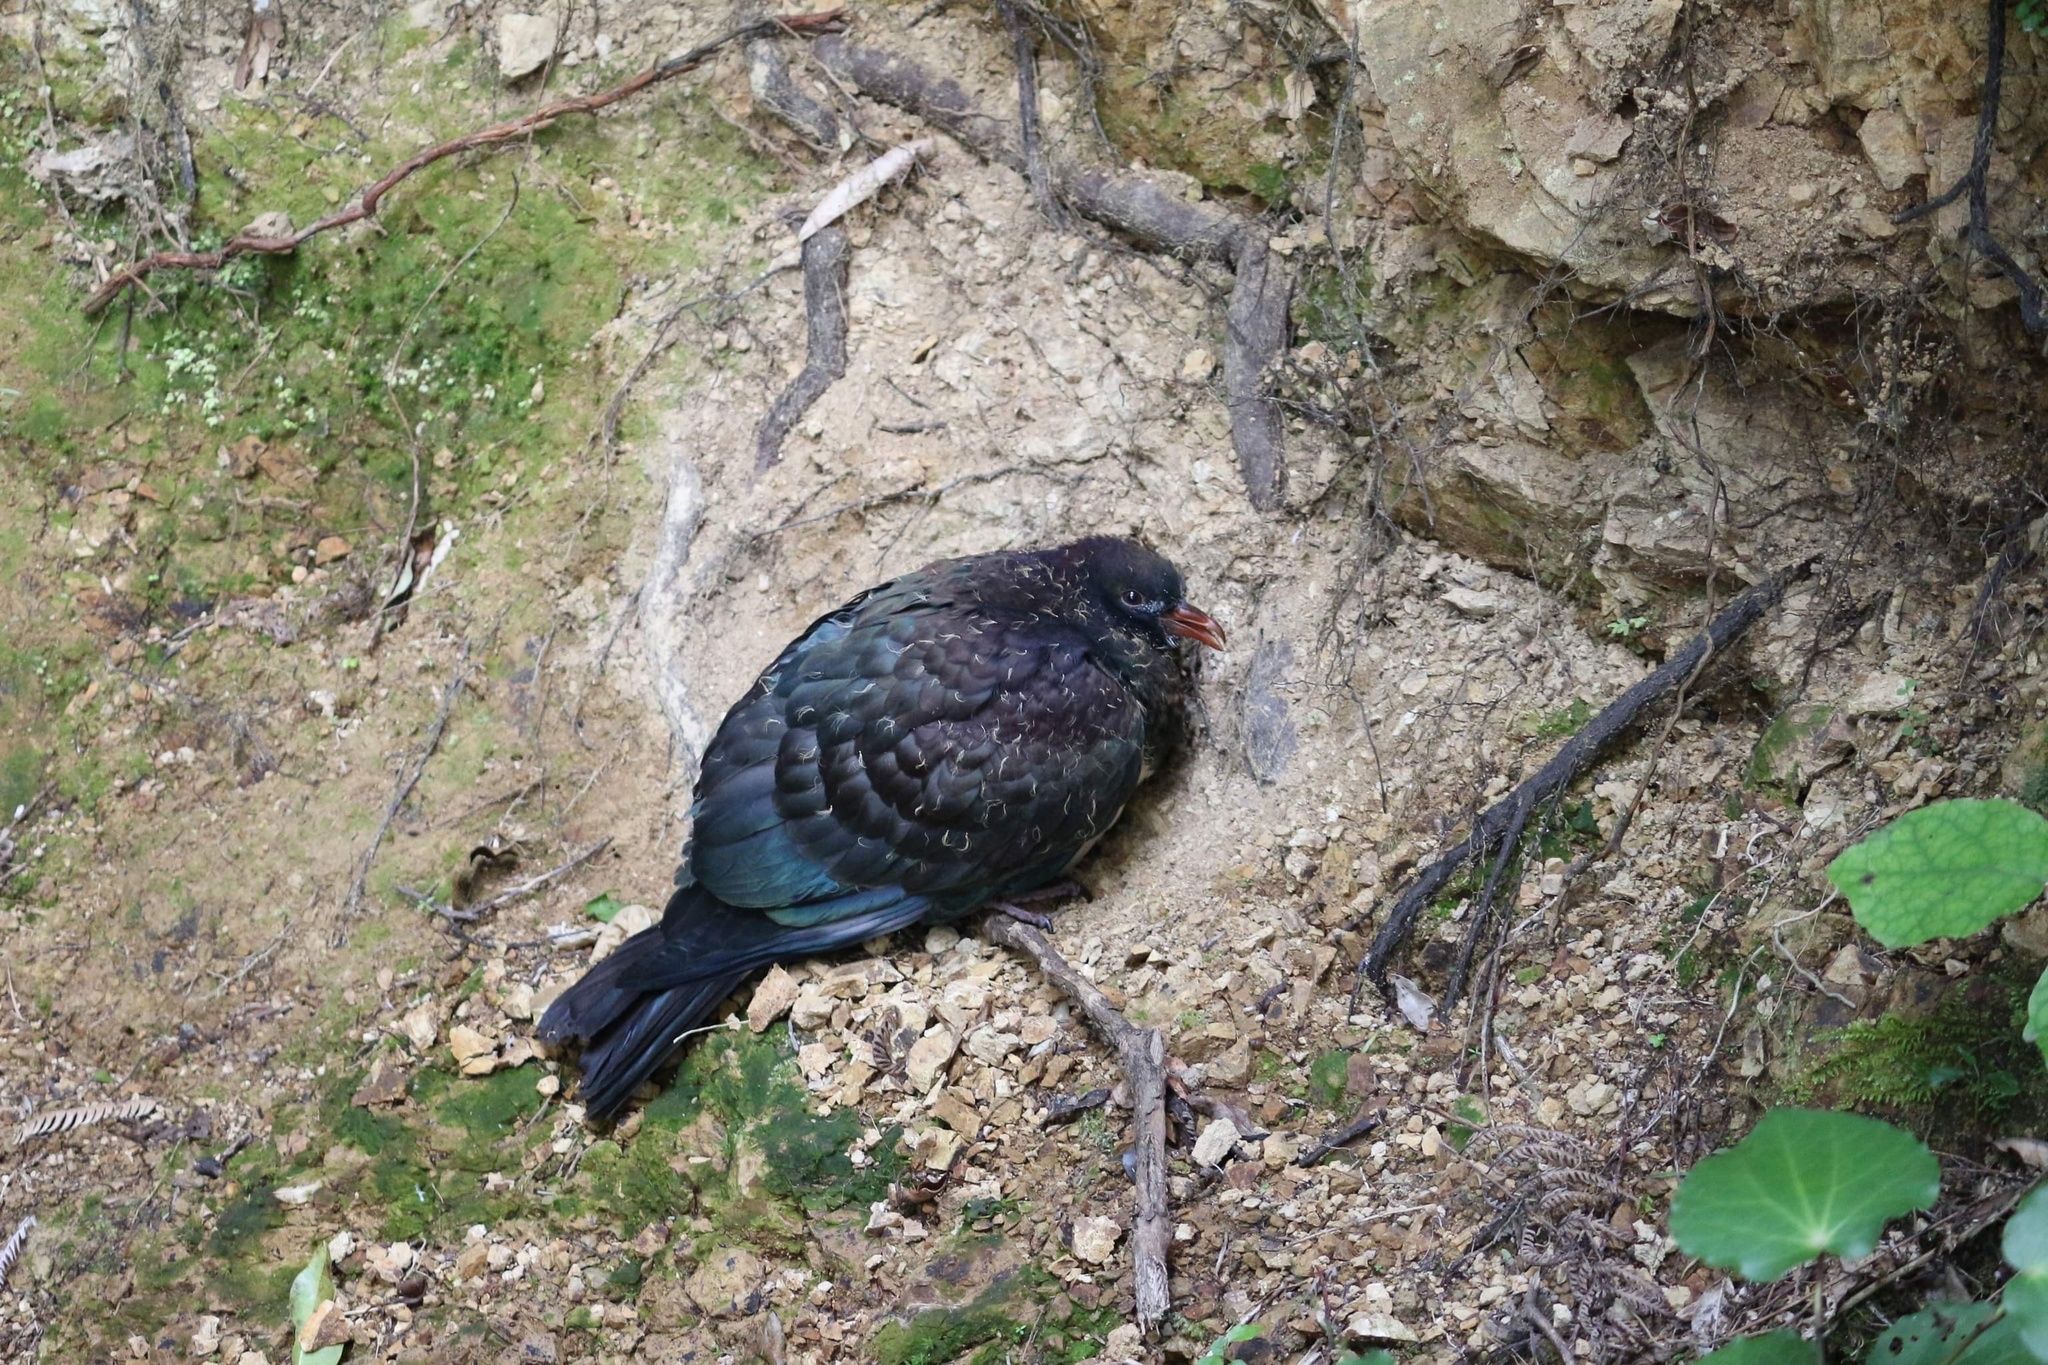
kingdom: Animalia
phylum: Chordata
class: Aves
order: Columbiformes
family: Columbidae
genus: Hemiphaga
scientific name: Hemiphaga novaeseelandiae
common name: New zealand pigeon
